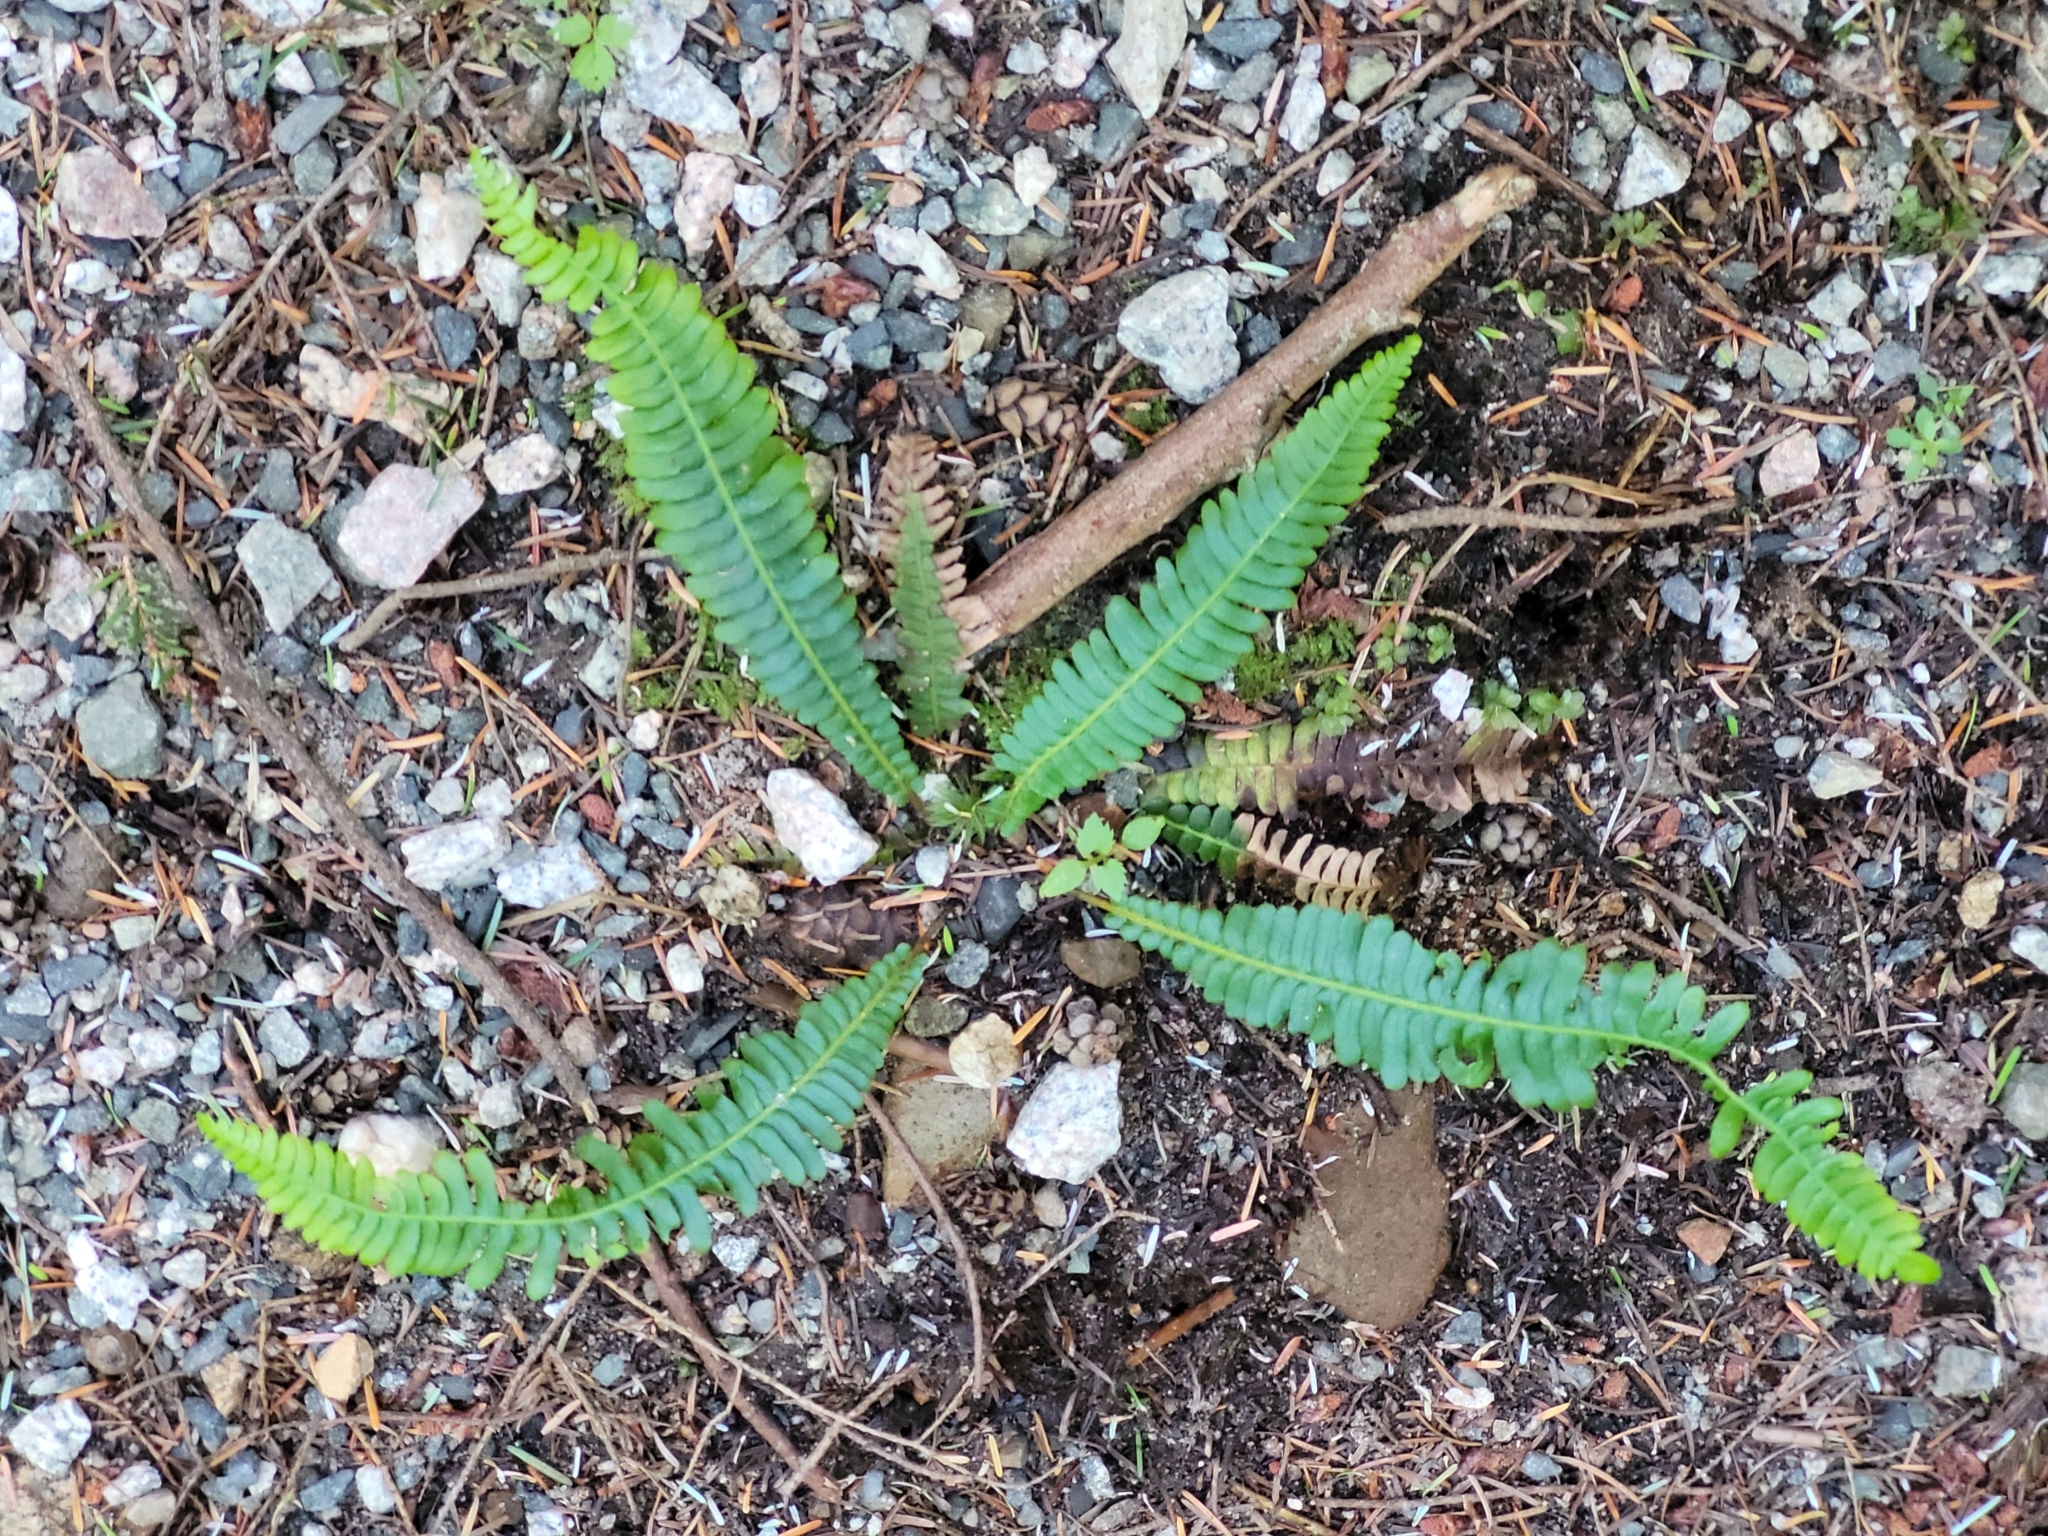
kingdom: Plantae
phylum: Tracheophyta
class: Polypodiopsida
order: Polypodiales
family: Blechnaceae
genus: Struthiopteris
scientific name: Struthiopteris spicant
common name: Deer fern
